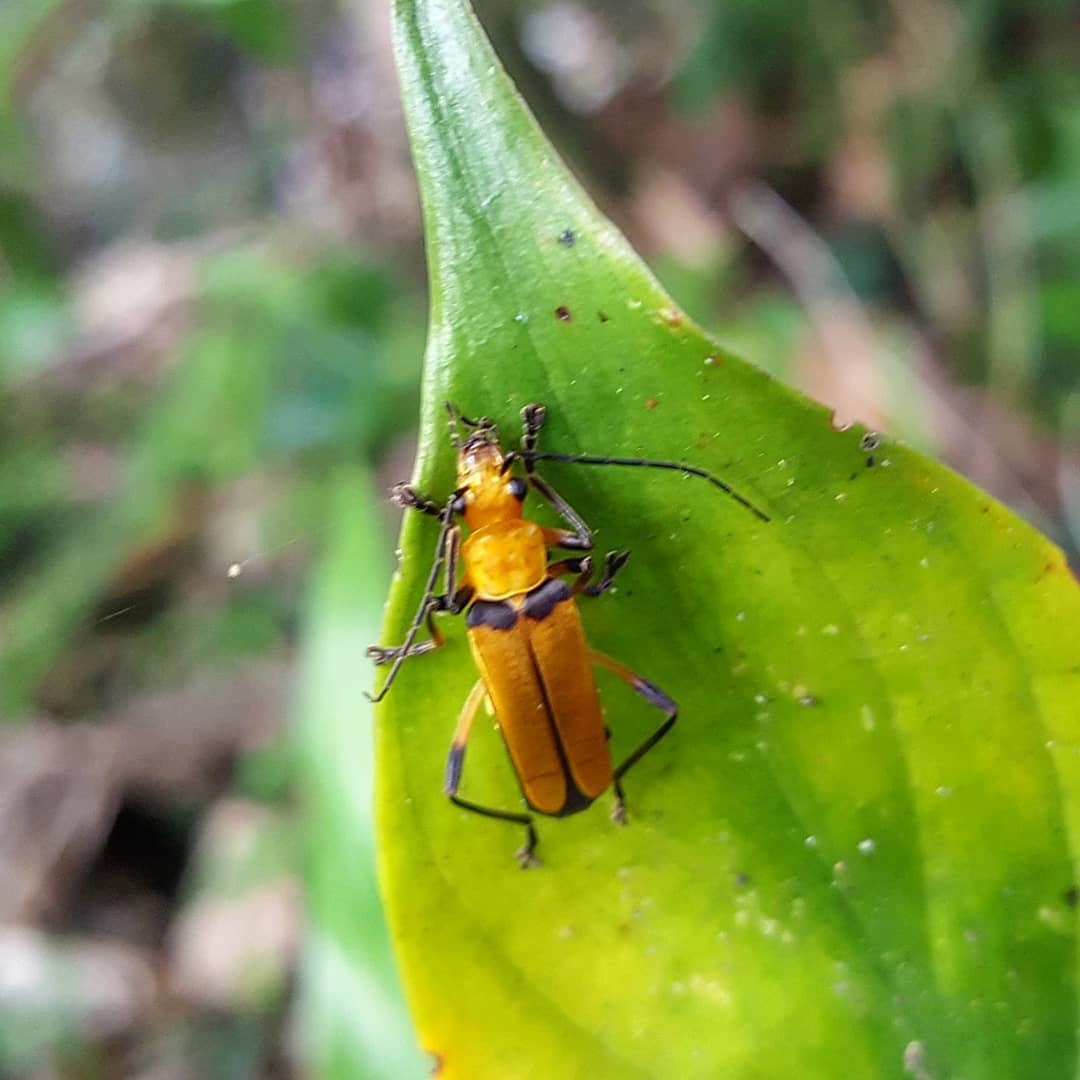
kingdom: Animalia
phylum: Arthropoda
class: Insecta
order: Coleoptera
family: Cantharidae
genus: Chauliognathus
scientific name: Chauliognathus
